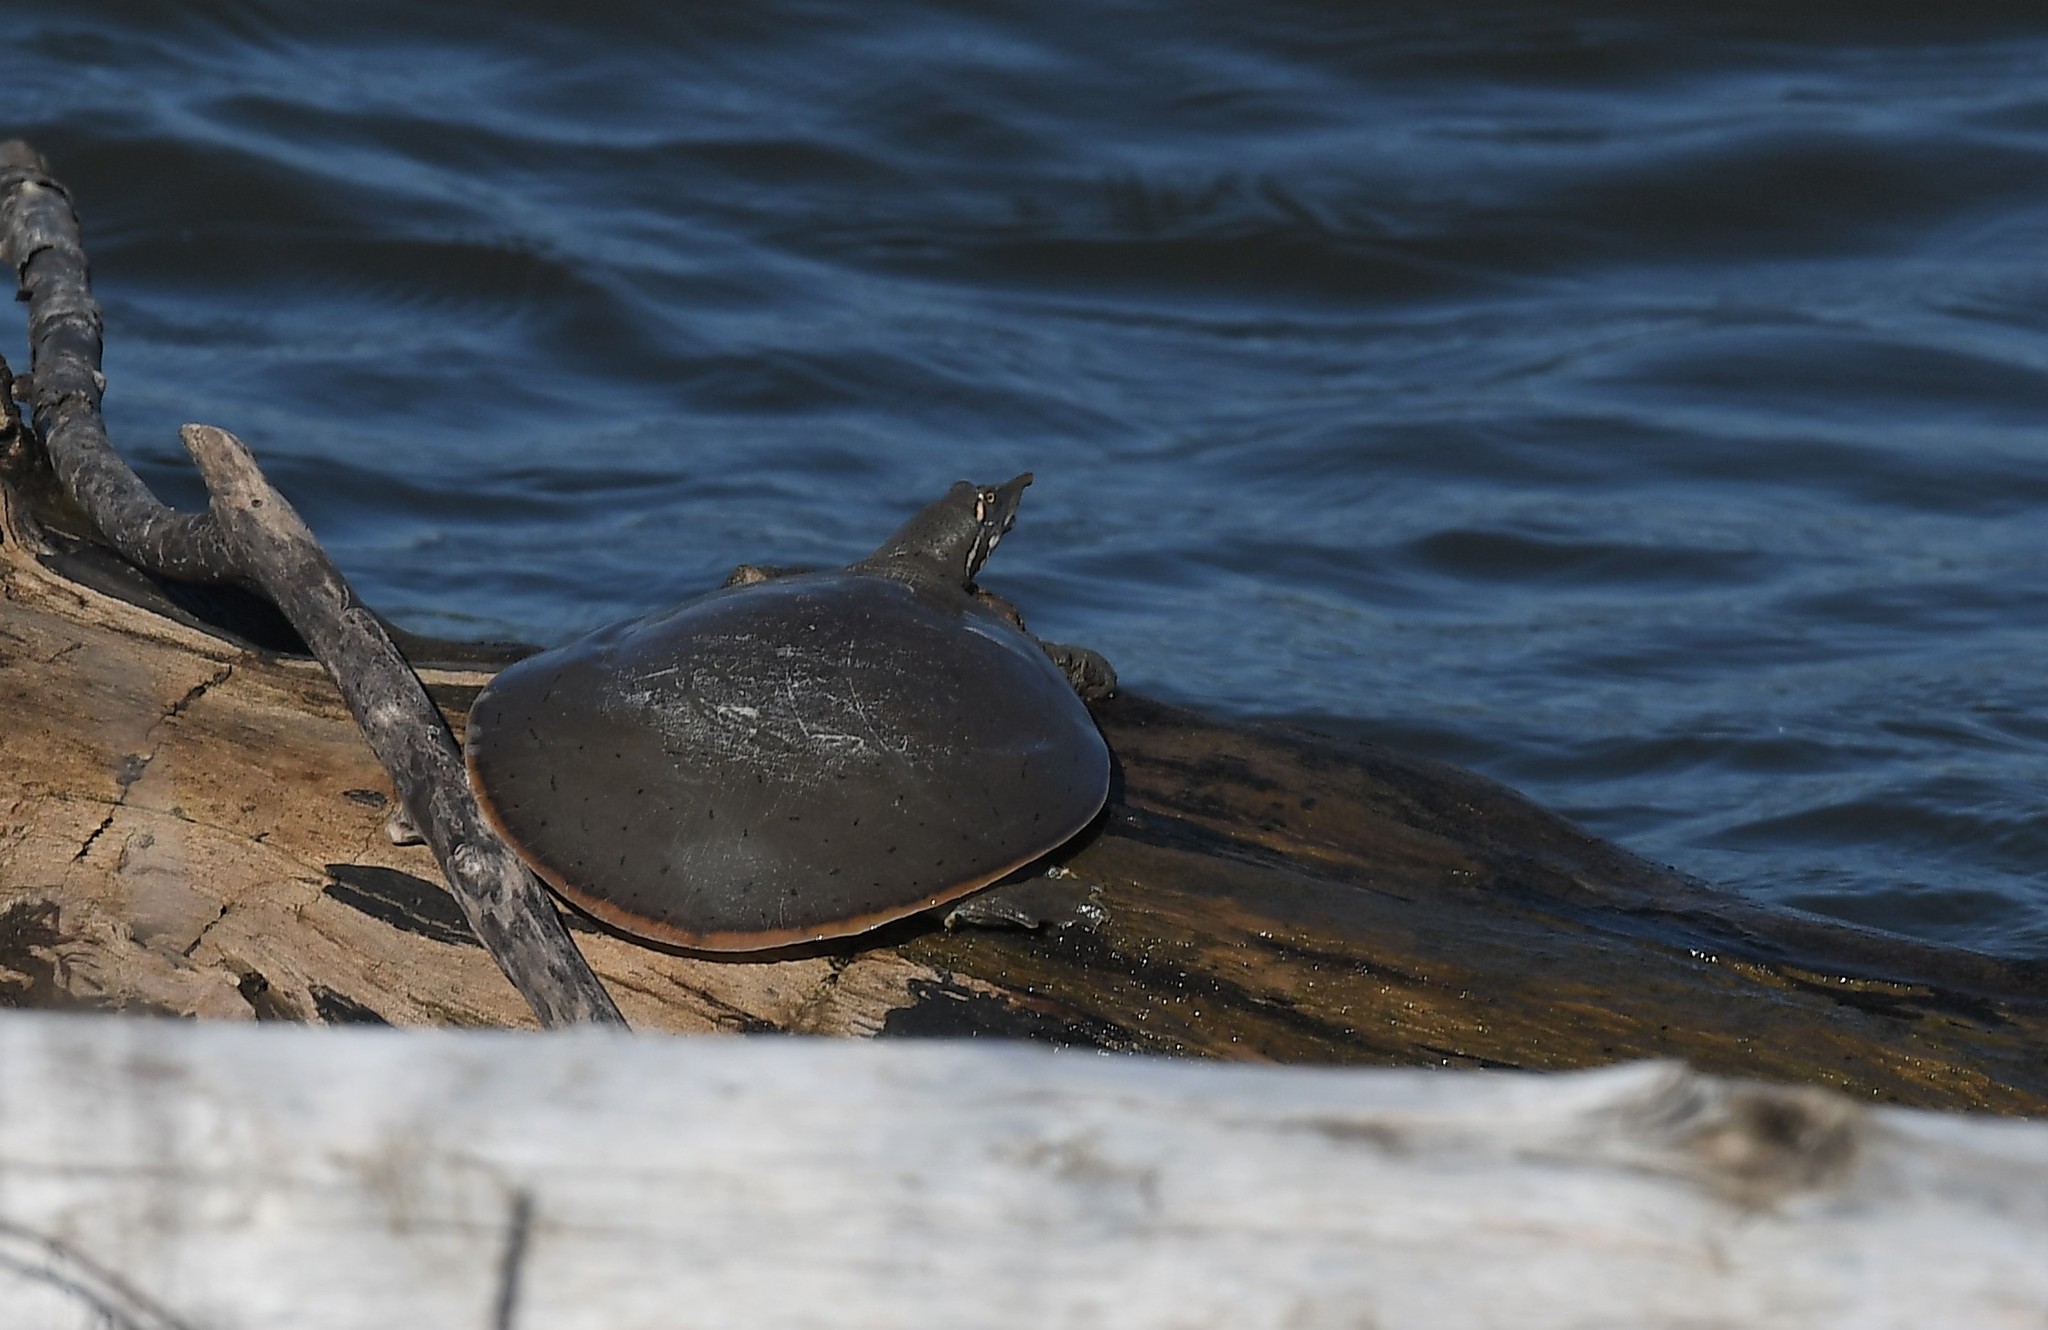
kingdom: Animalia
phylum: Chordata
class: Testudines
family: Trionychidae
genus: Apalone
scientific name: Apalone mutica
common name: Smooth softshell turtle
